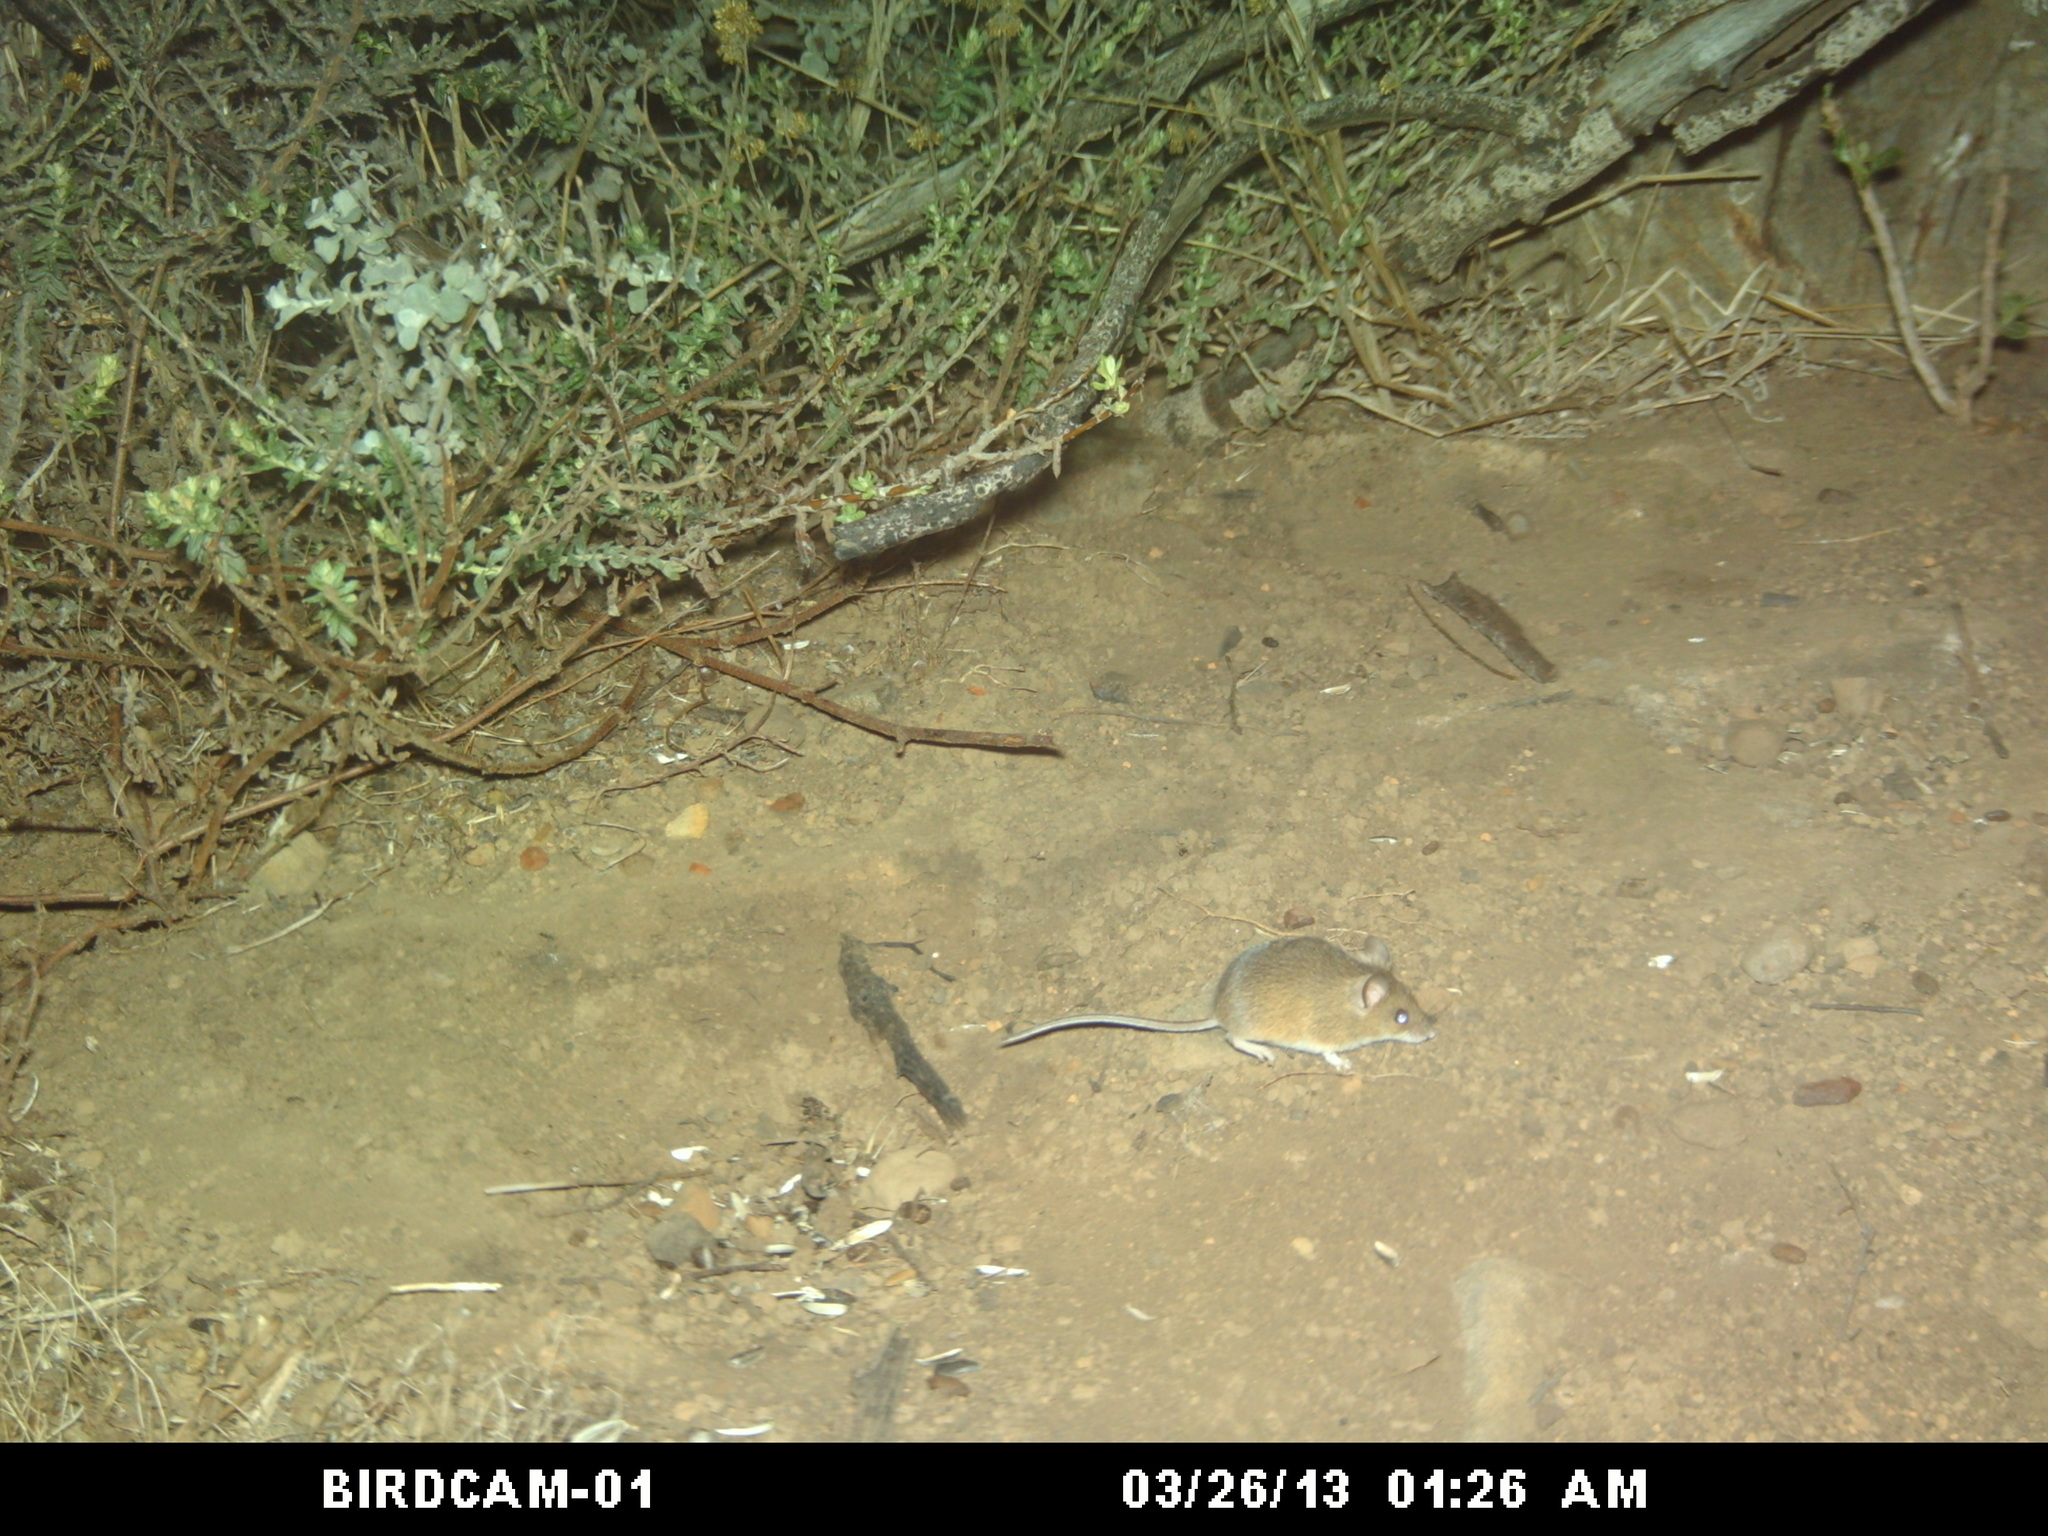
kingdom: Animalia
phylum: Chordata
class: Mammalia
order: Rodentia
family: Muridae
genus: Mus
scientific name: Mus minutoides
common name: Southern african pygmy mouse
